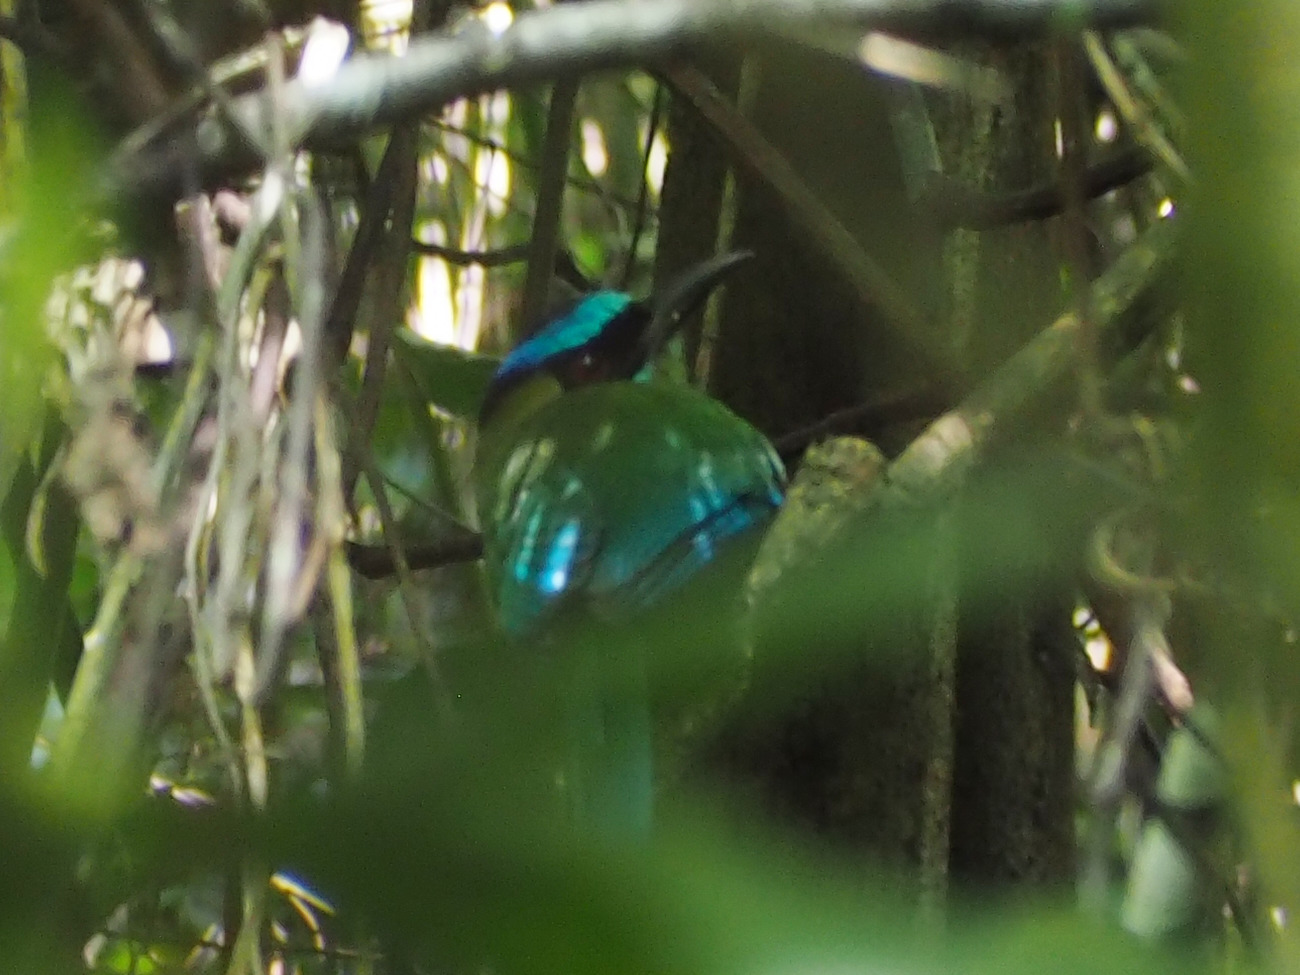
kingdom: Animalia
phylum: Chordata
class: Aves
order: Coraciiformes
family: Momotidae
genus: Momotus
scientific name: Momotus lessonii
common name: Lesson's motmot
